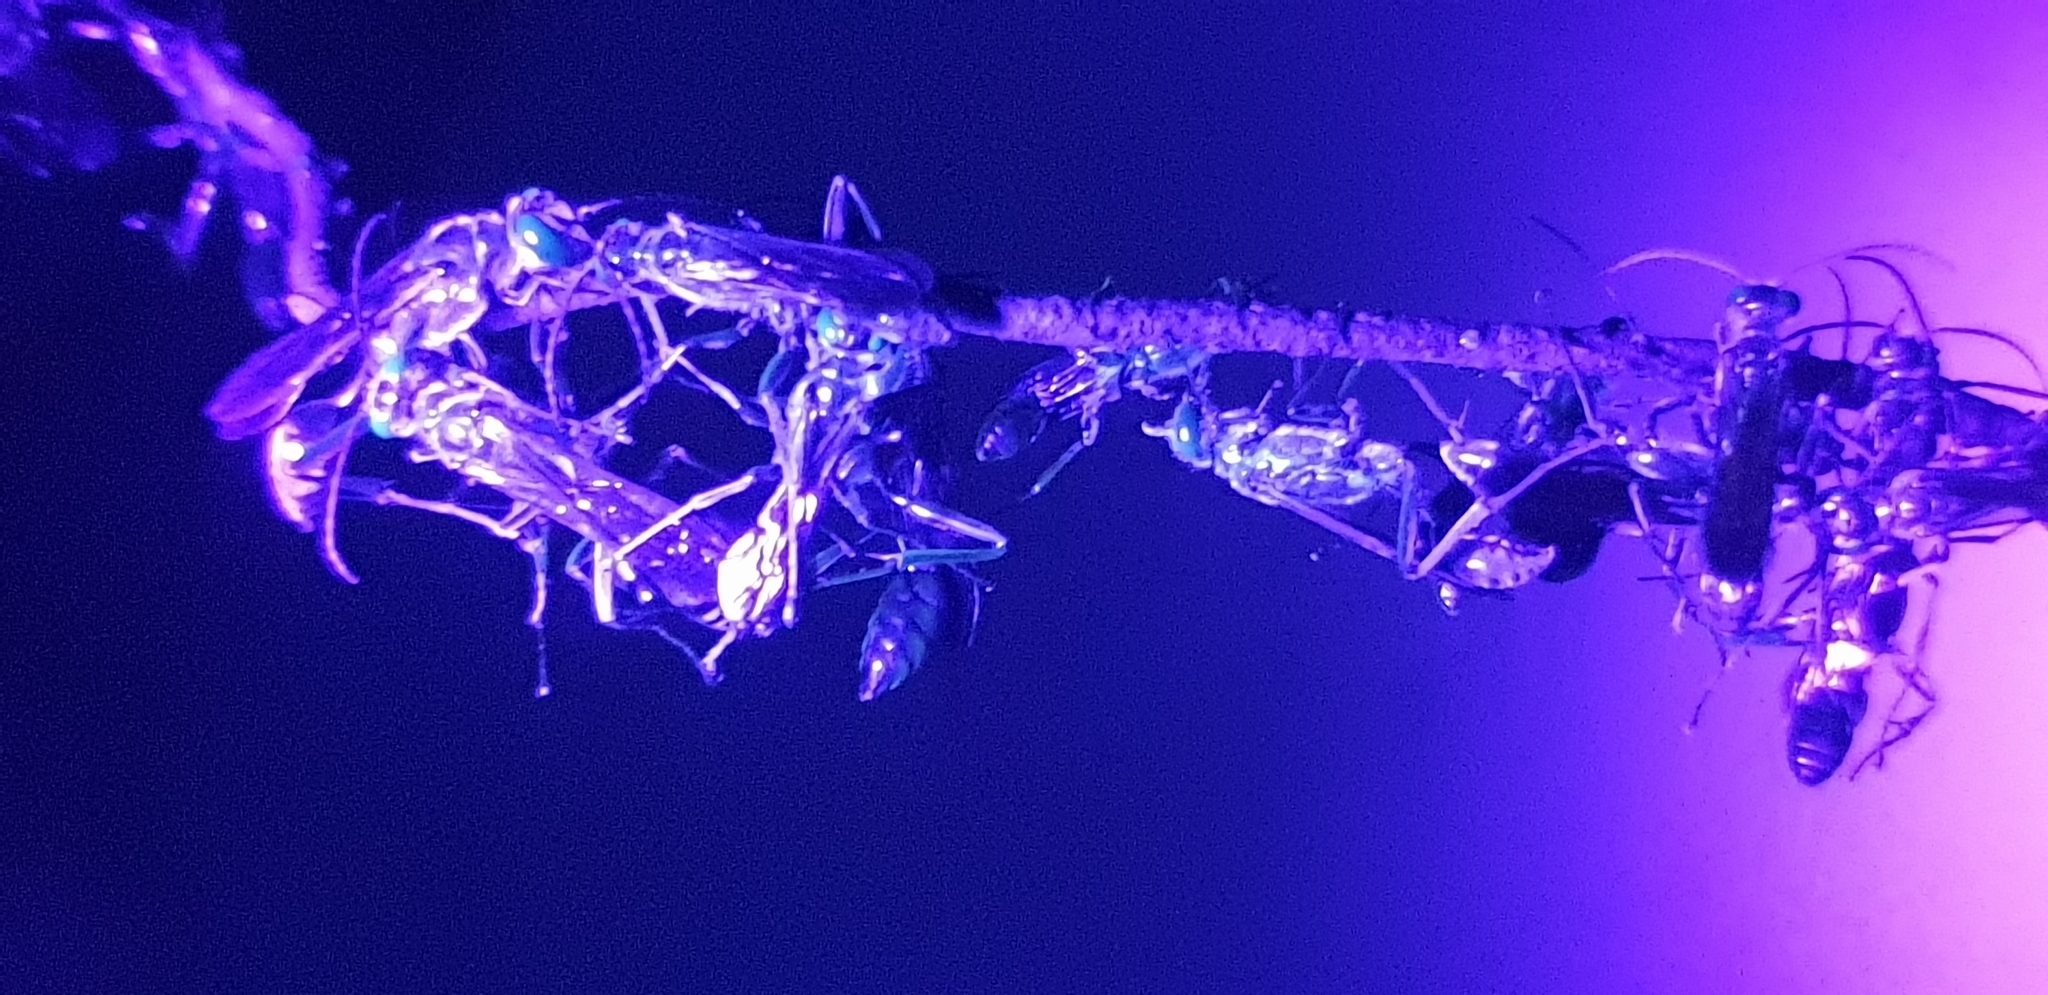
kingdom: Animalia
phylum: Arthropoda
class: Insecta
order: Hymenoptera
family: Sphecidae
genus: Chalybion
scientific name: Chalybion bengalense
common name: Mud dauber
